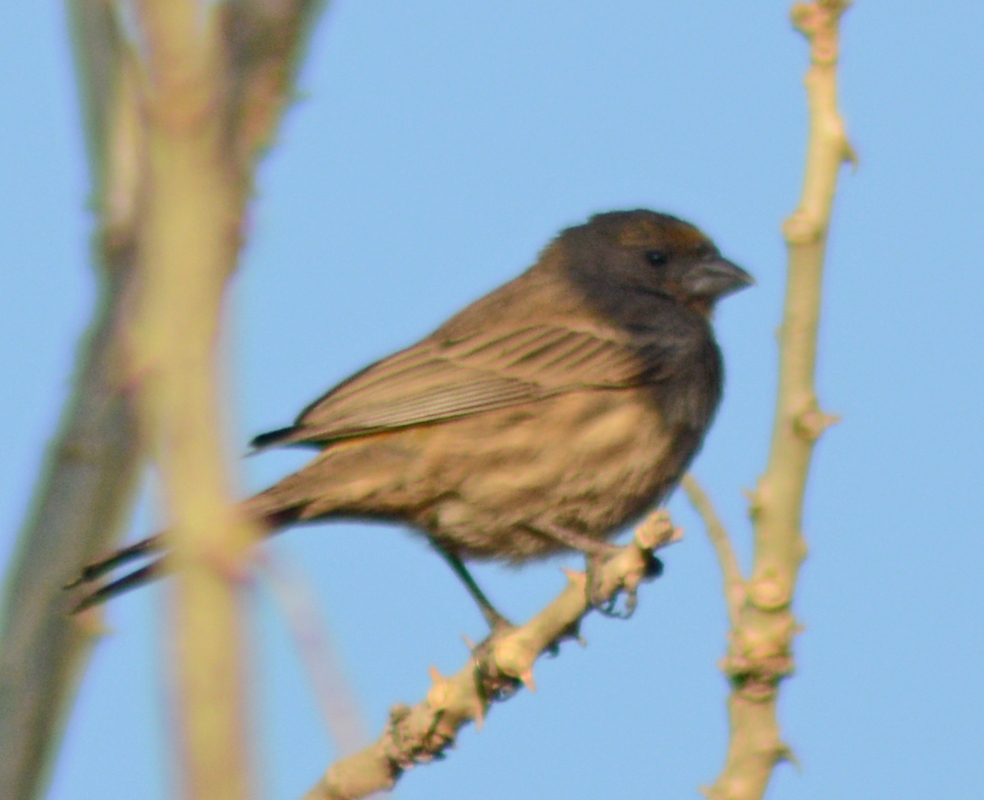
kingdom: Animalia
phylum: Chordata
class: Aves
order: Passeriformes
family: Fringillidae
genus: Haemorhous
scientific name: Haemorhous mexicanus
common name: House finch
